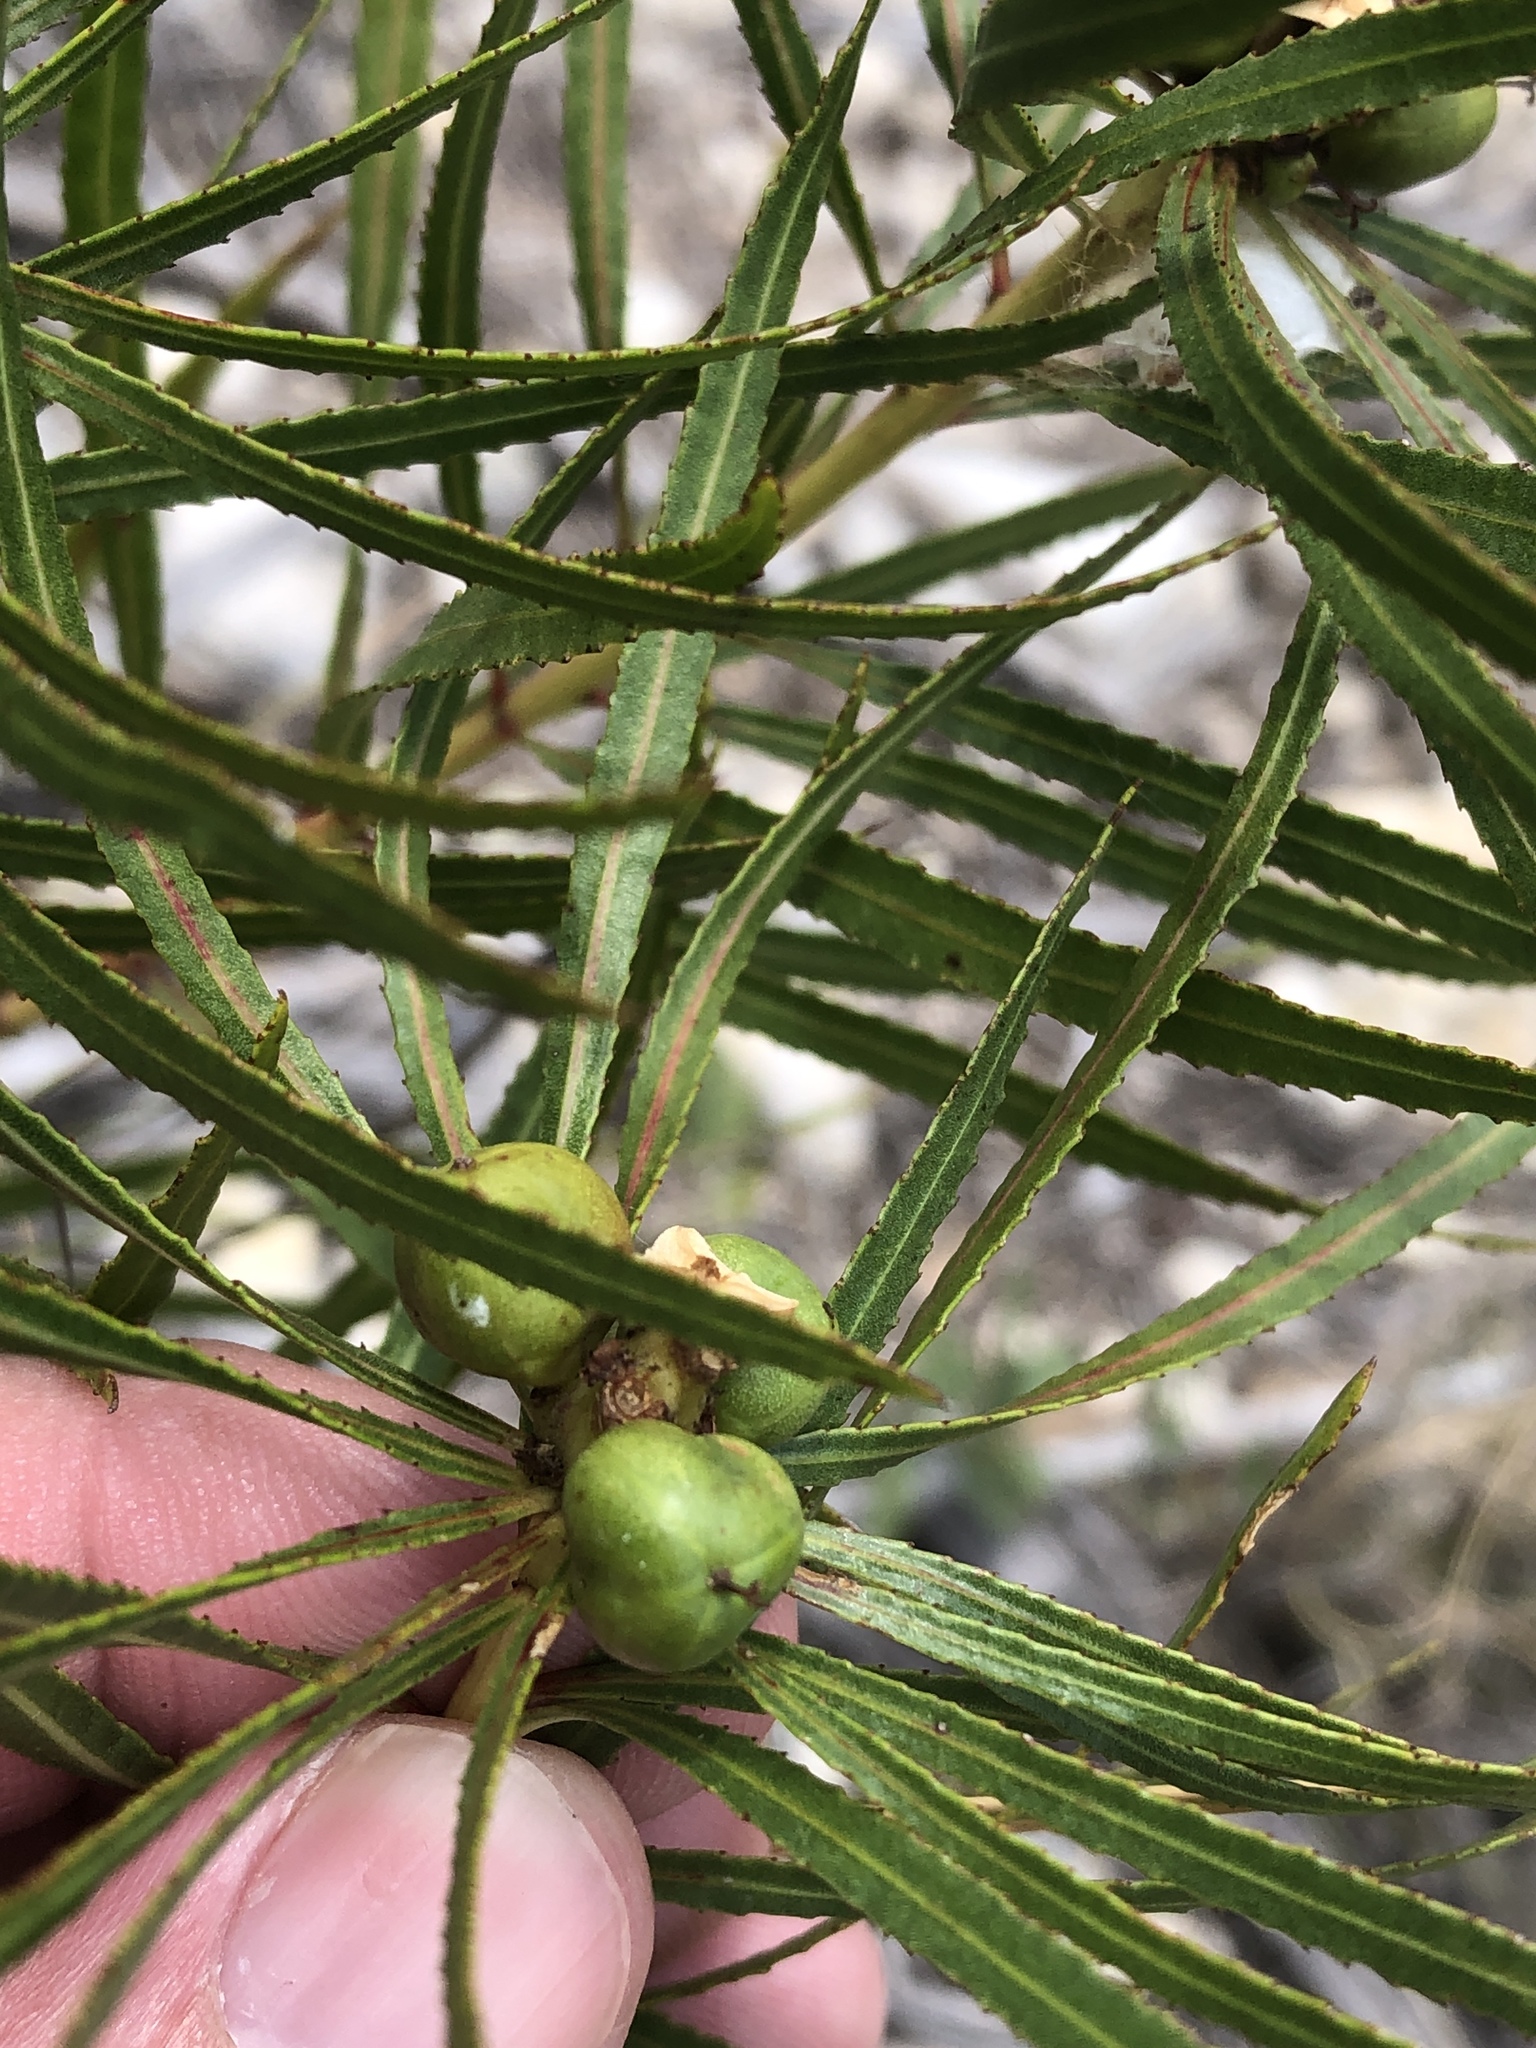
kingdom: Plantae
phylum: Tracheophyta
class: Magnoliopsida
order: Malpighiales
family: Euphorbiaceae
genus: Stillingia
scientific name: Stillingia texana
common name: Texas stillingia
